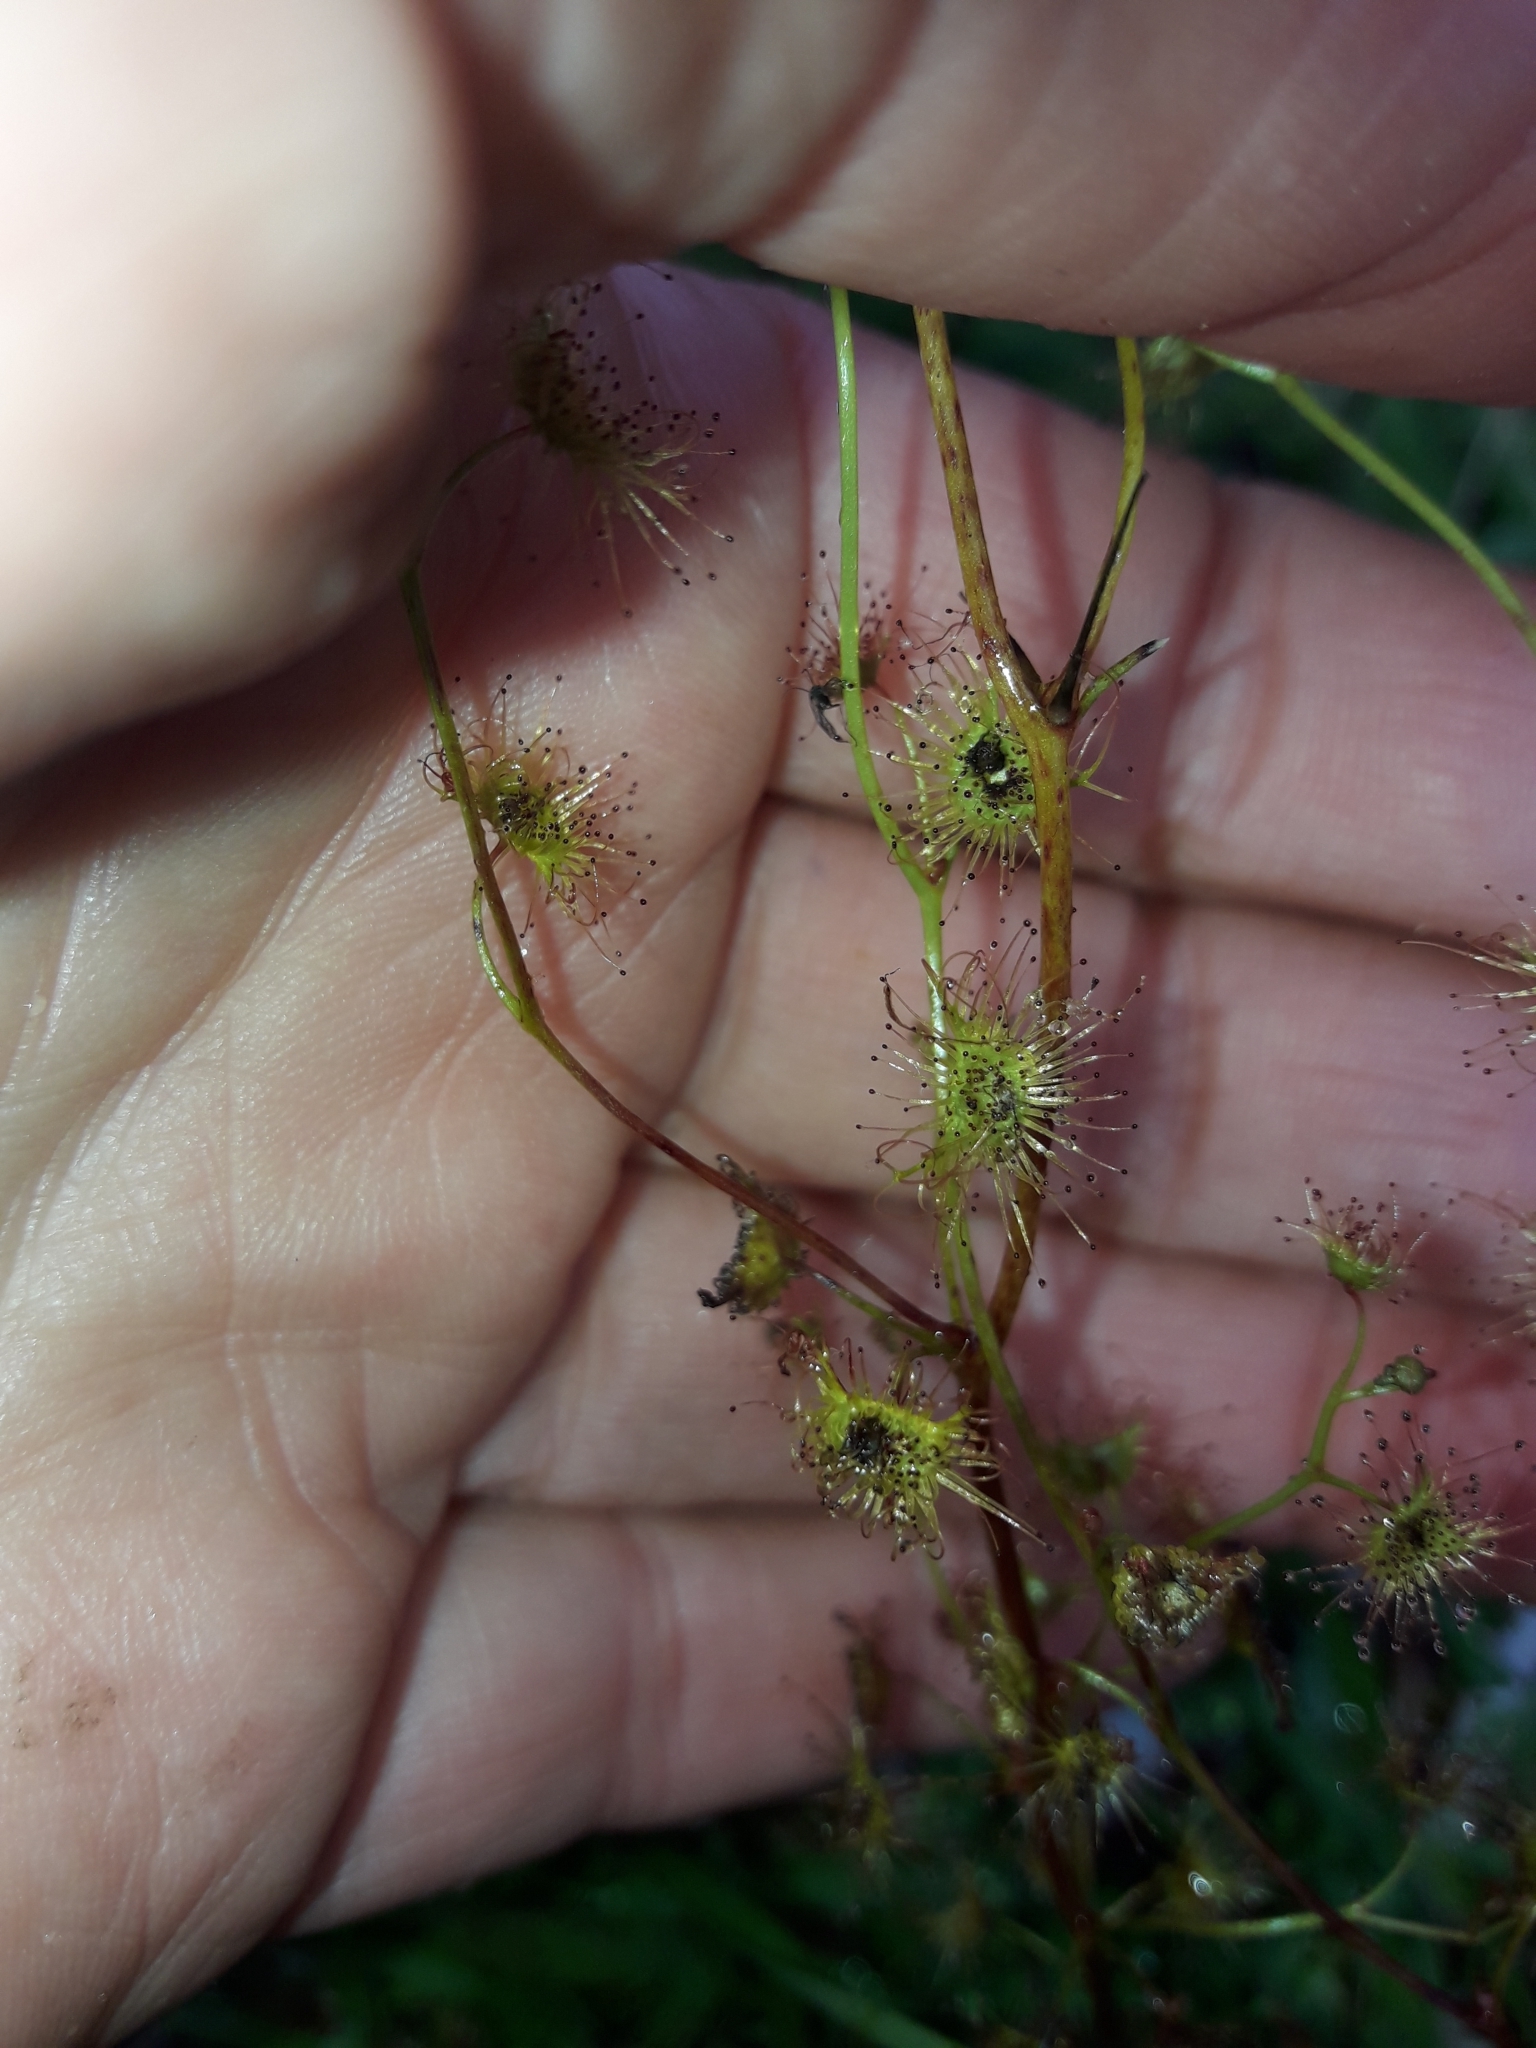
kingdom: Plantae
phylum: Tracheophyta
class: Magnoliopsida
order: Caryophyllales
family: Droseraceae
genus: Drosera
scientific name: Drosera peltata
